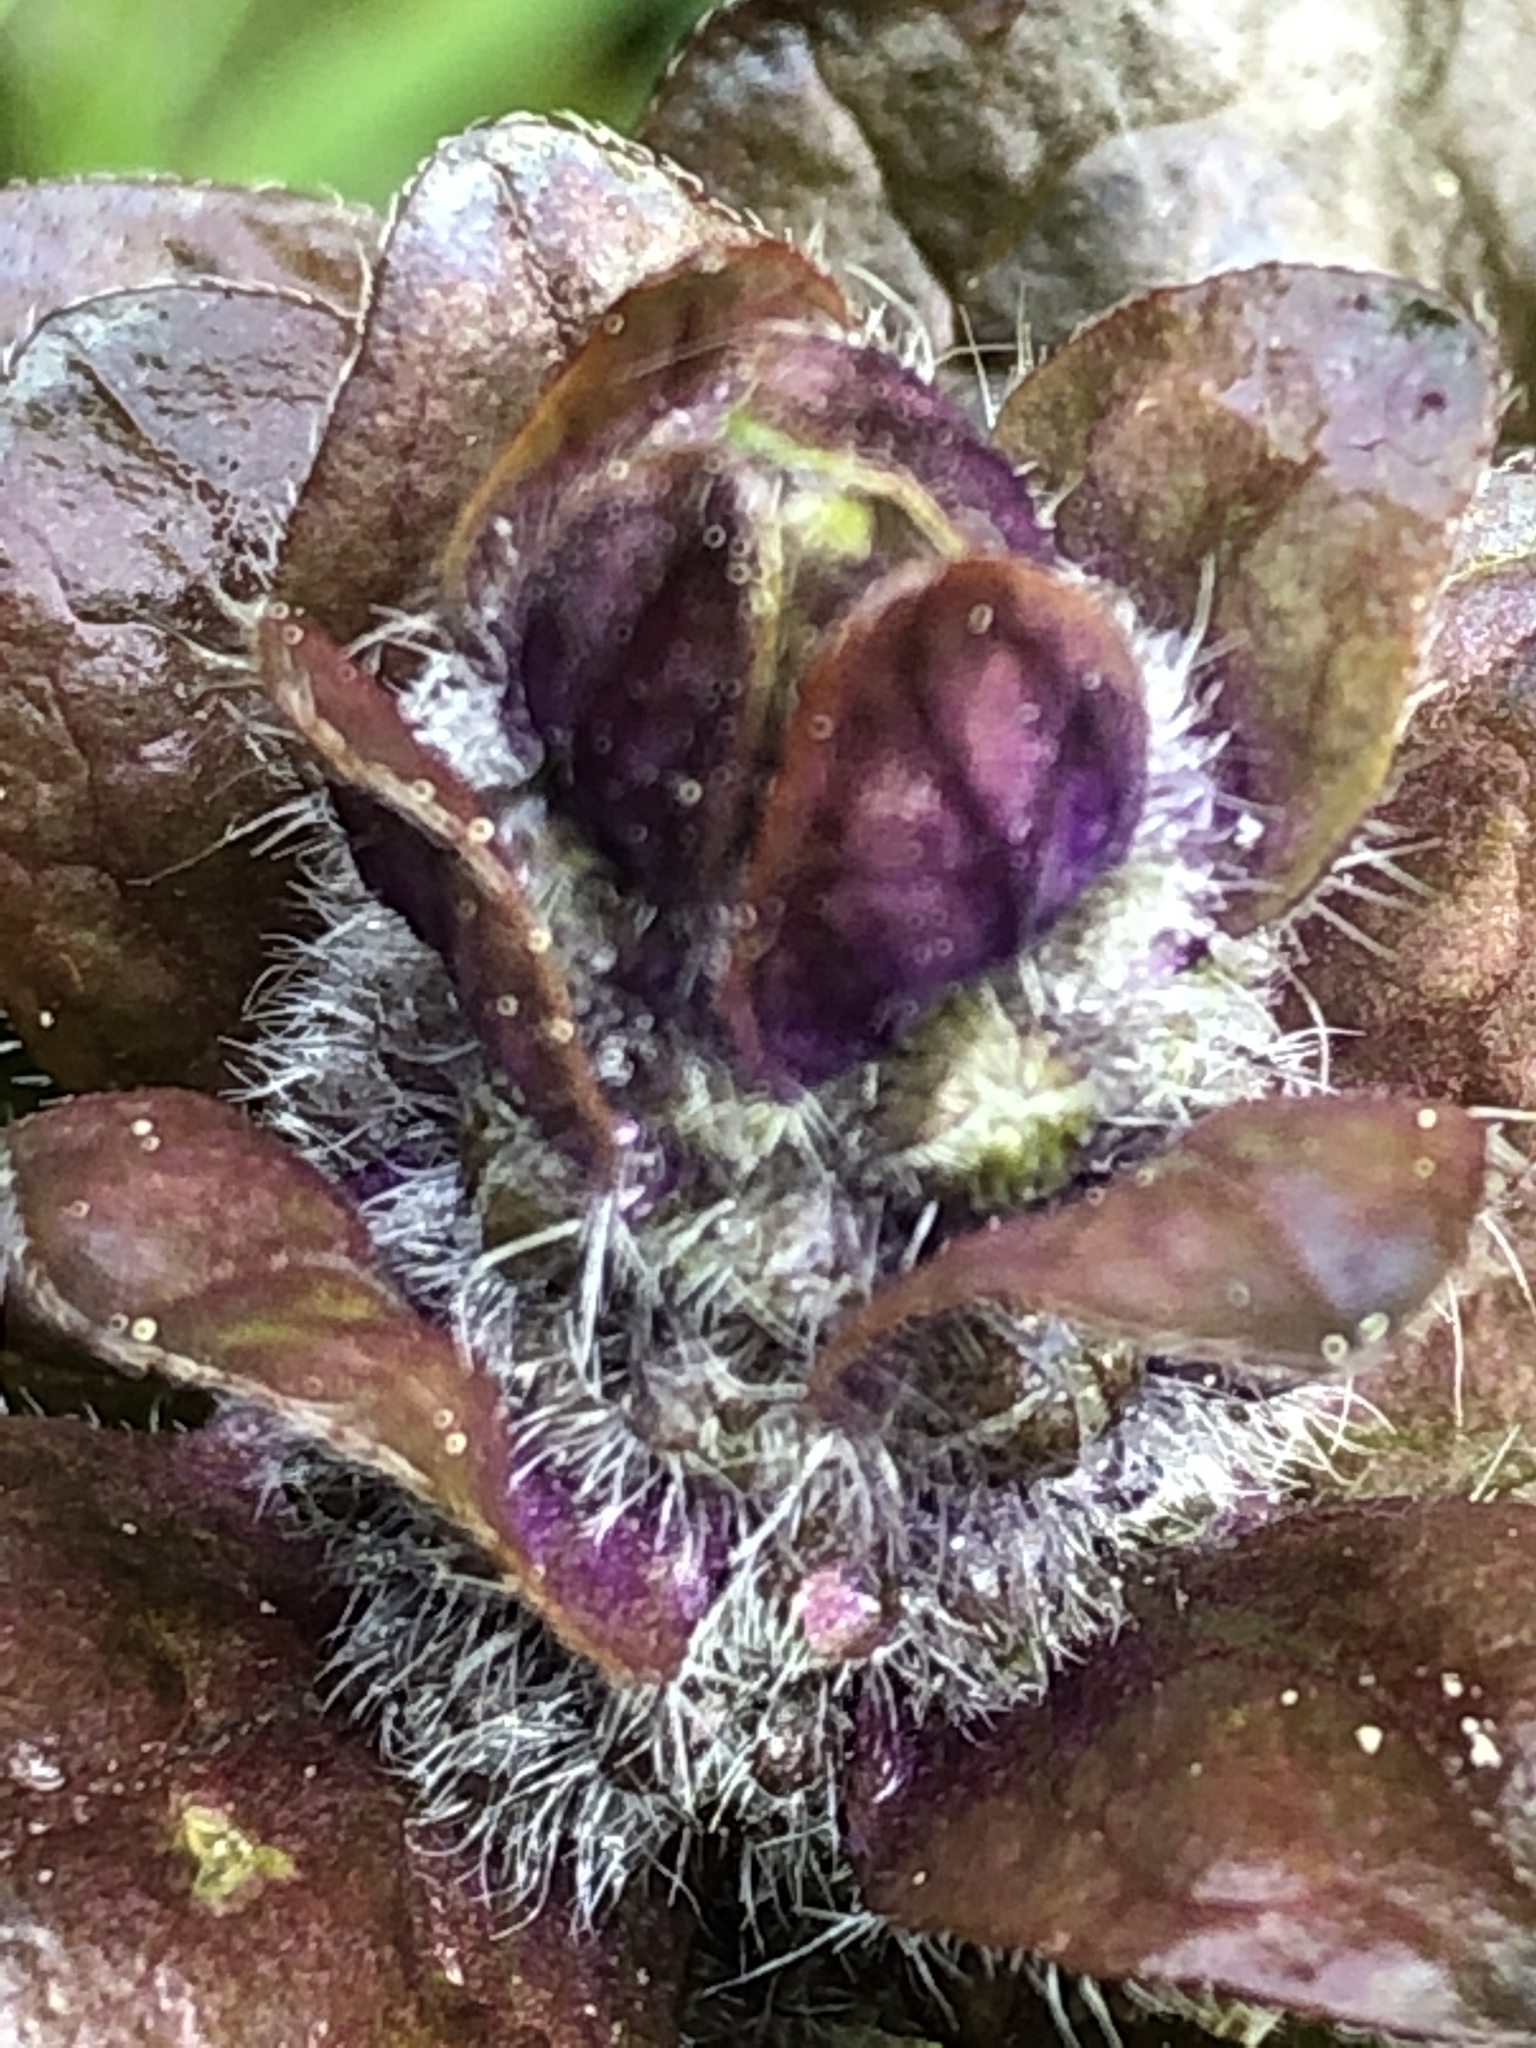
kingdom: Plantae
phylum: Tracheophyta
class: Magnoliopsida
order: Lamiales
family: Lamiaceae
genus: Ajuga
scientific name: Ajuga reptans
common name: Bugle
